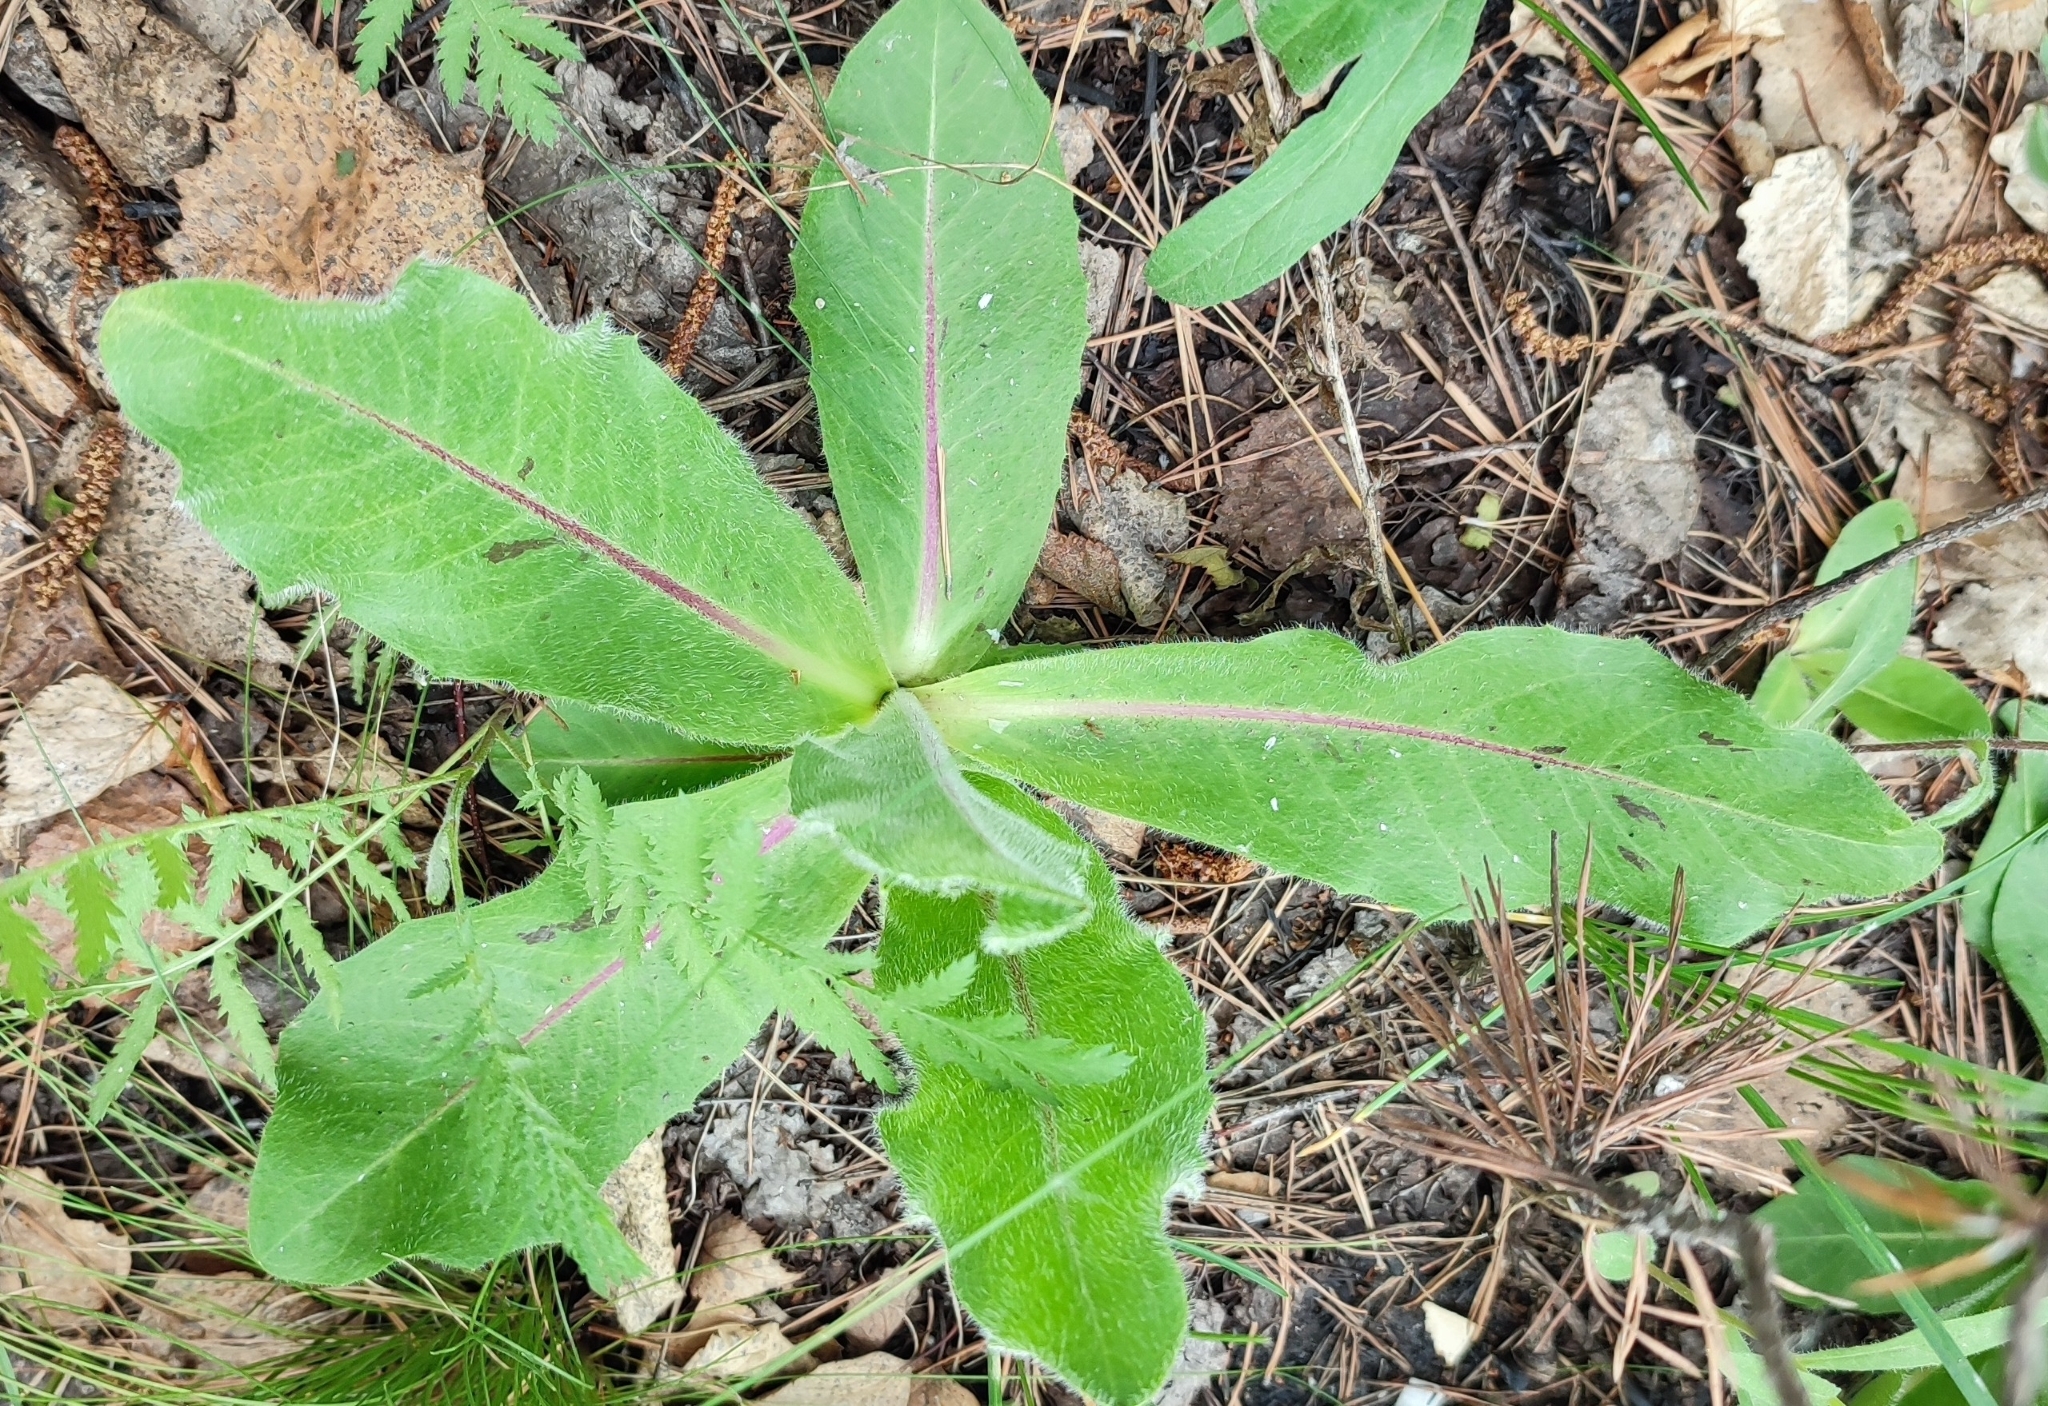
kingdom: Plantae
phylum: Tracheophyta
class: Magnoliopsida
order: Asterales
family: Asteraceae
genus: Trommsdorffia
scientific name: Trommsdorffia maculata
